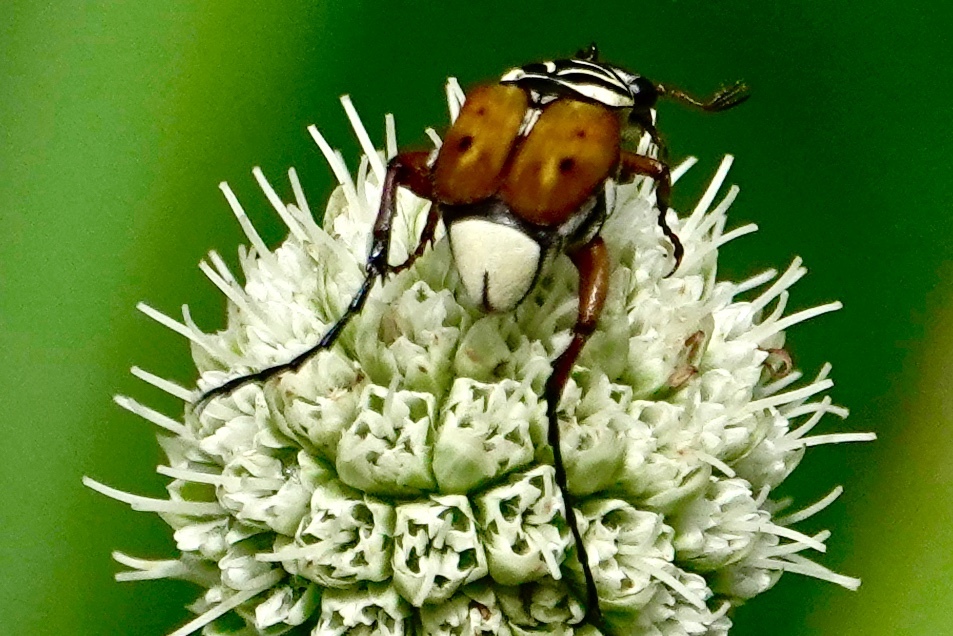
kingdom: Animalia
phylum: Arthropoda
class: Insecta
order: Coleoptera
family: Scarabaeidae
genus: Trigonopeltastes
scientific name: Trigonopeltastes delta
